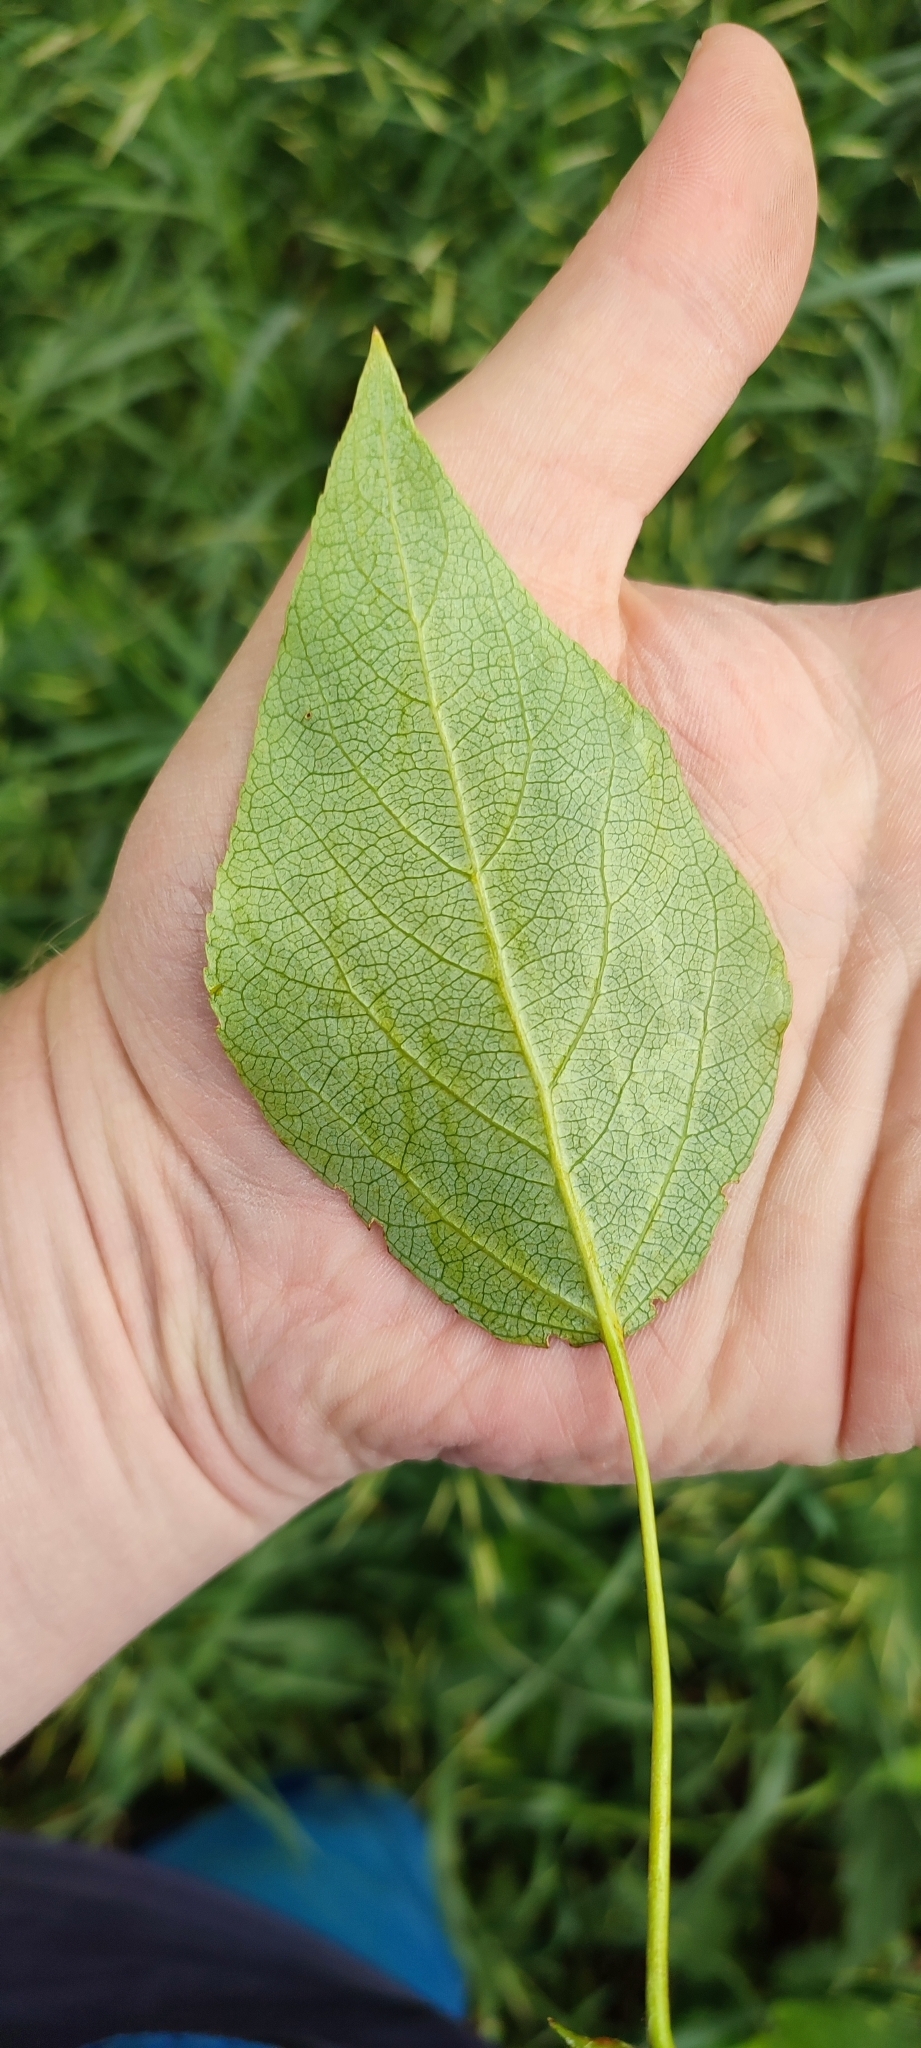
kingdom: Plantae
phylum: Tracheophyta
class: Magnoliopsida
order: Malpighiales
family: Salicaceae
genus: Populus
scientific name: Populus sibirica
